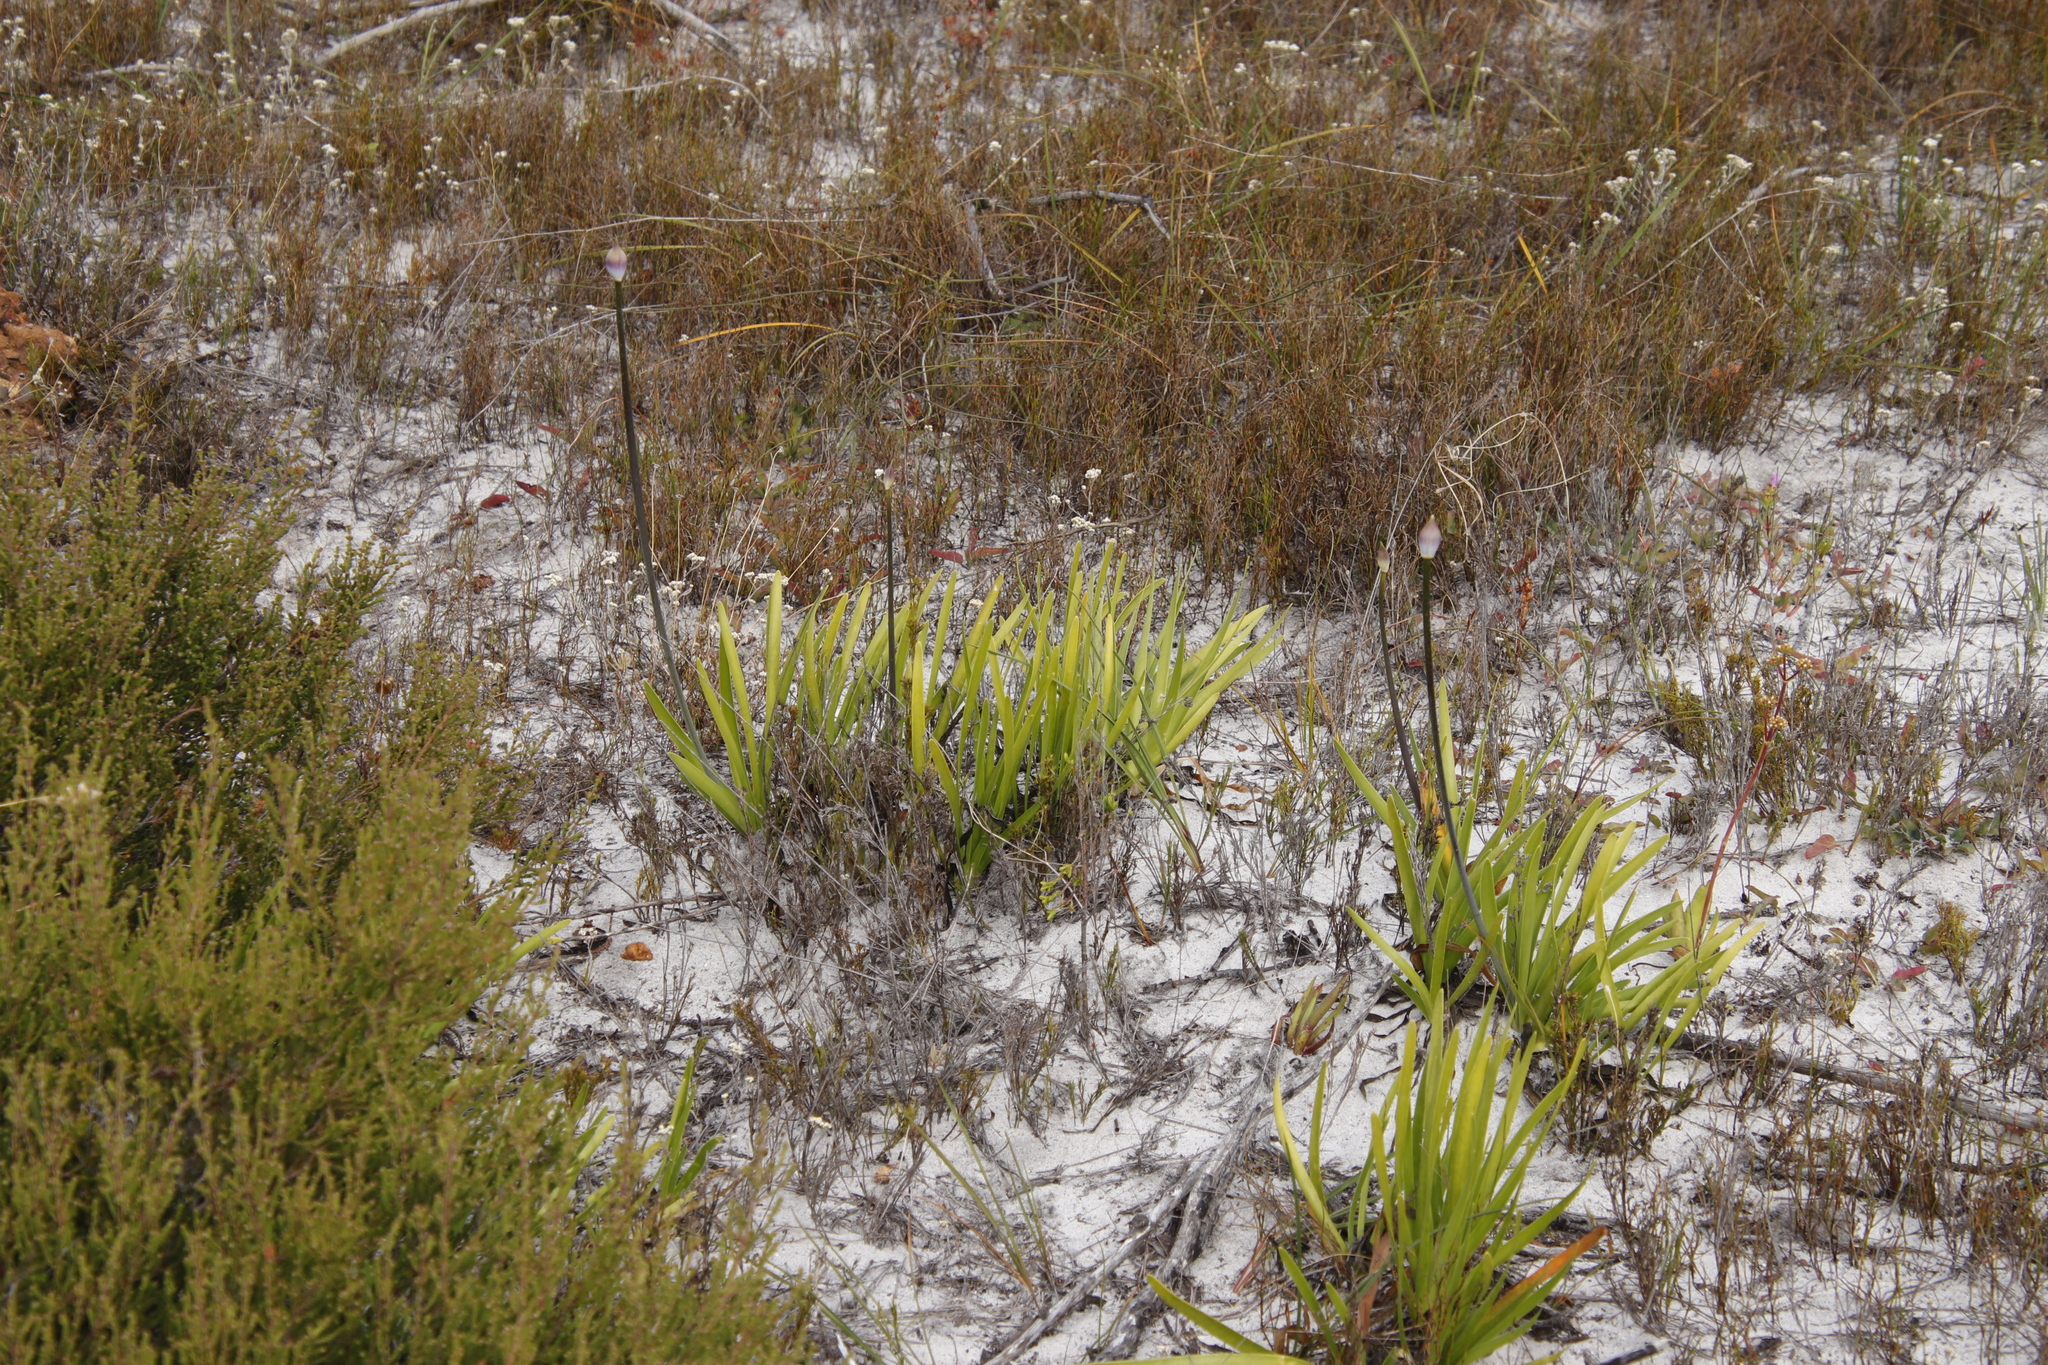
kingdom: Plantae
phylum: Tracheophyta
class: Liliopsida
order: Asparagales
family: Amaryllidaceae
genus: Agapanthus
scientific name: Agapanthus africanus
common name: Lily-of-the-nile
